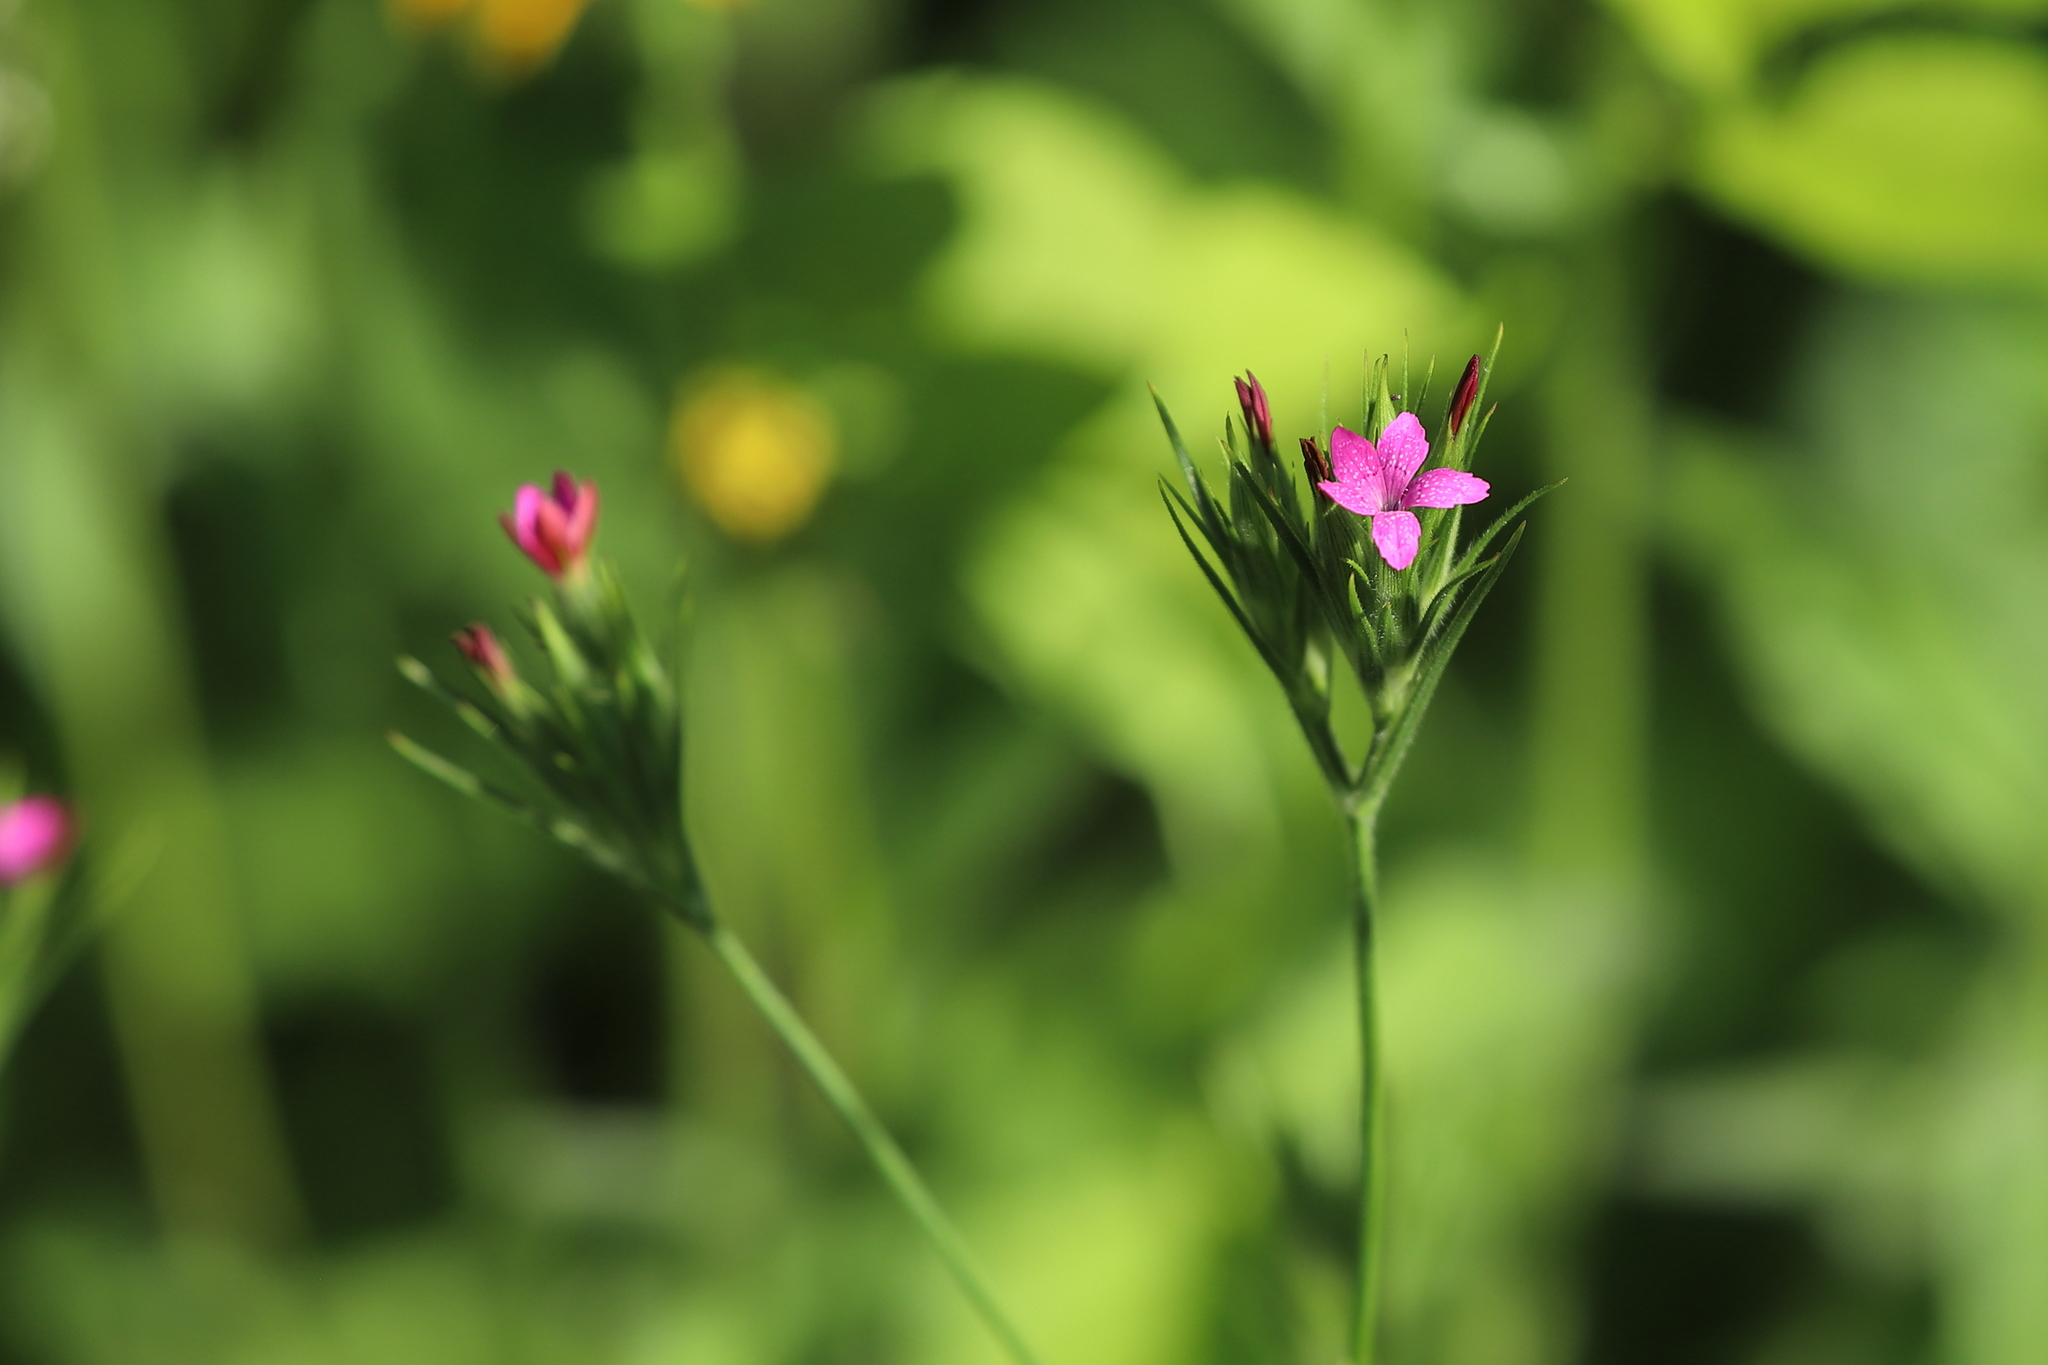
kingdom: Plantae
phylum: Tracheophyta
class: Magnoliopsida
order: Caryophyllales
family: Caryophyllaceae
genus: Dianthus
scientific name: Dianthus armeria
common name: Deptford pink
